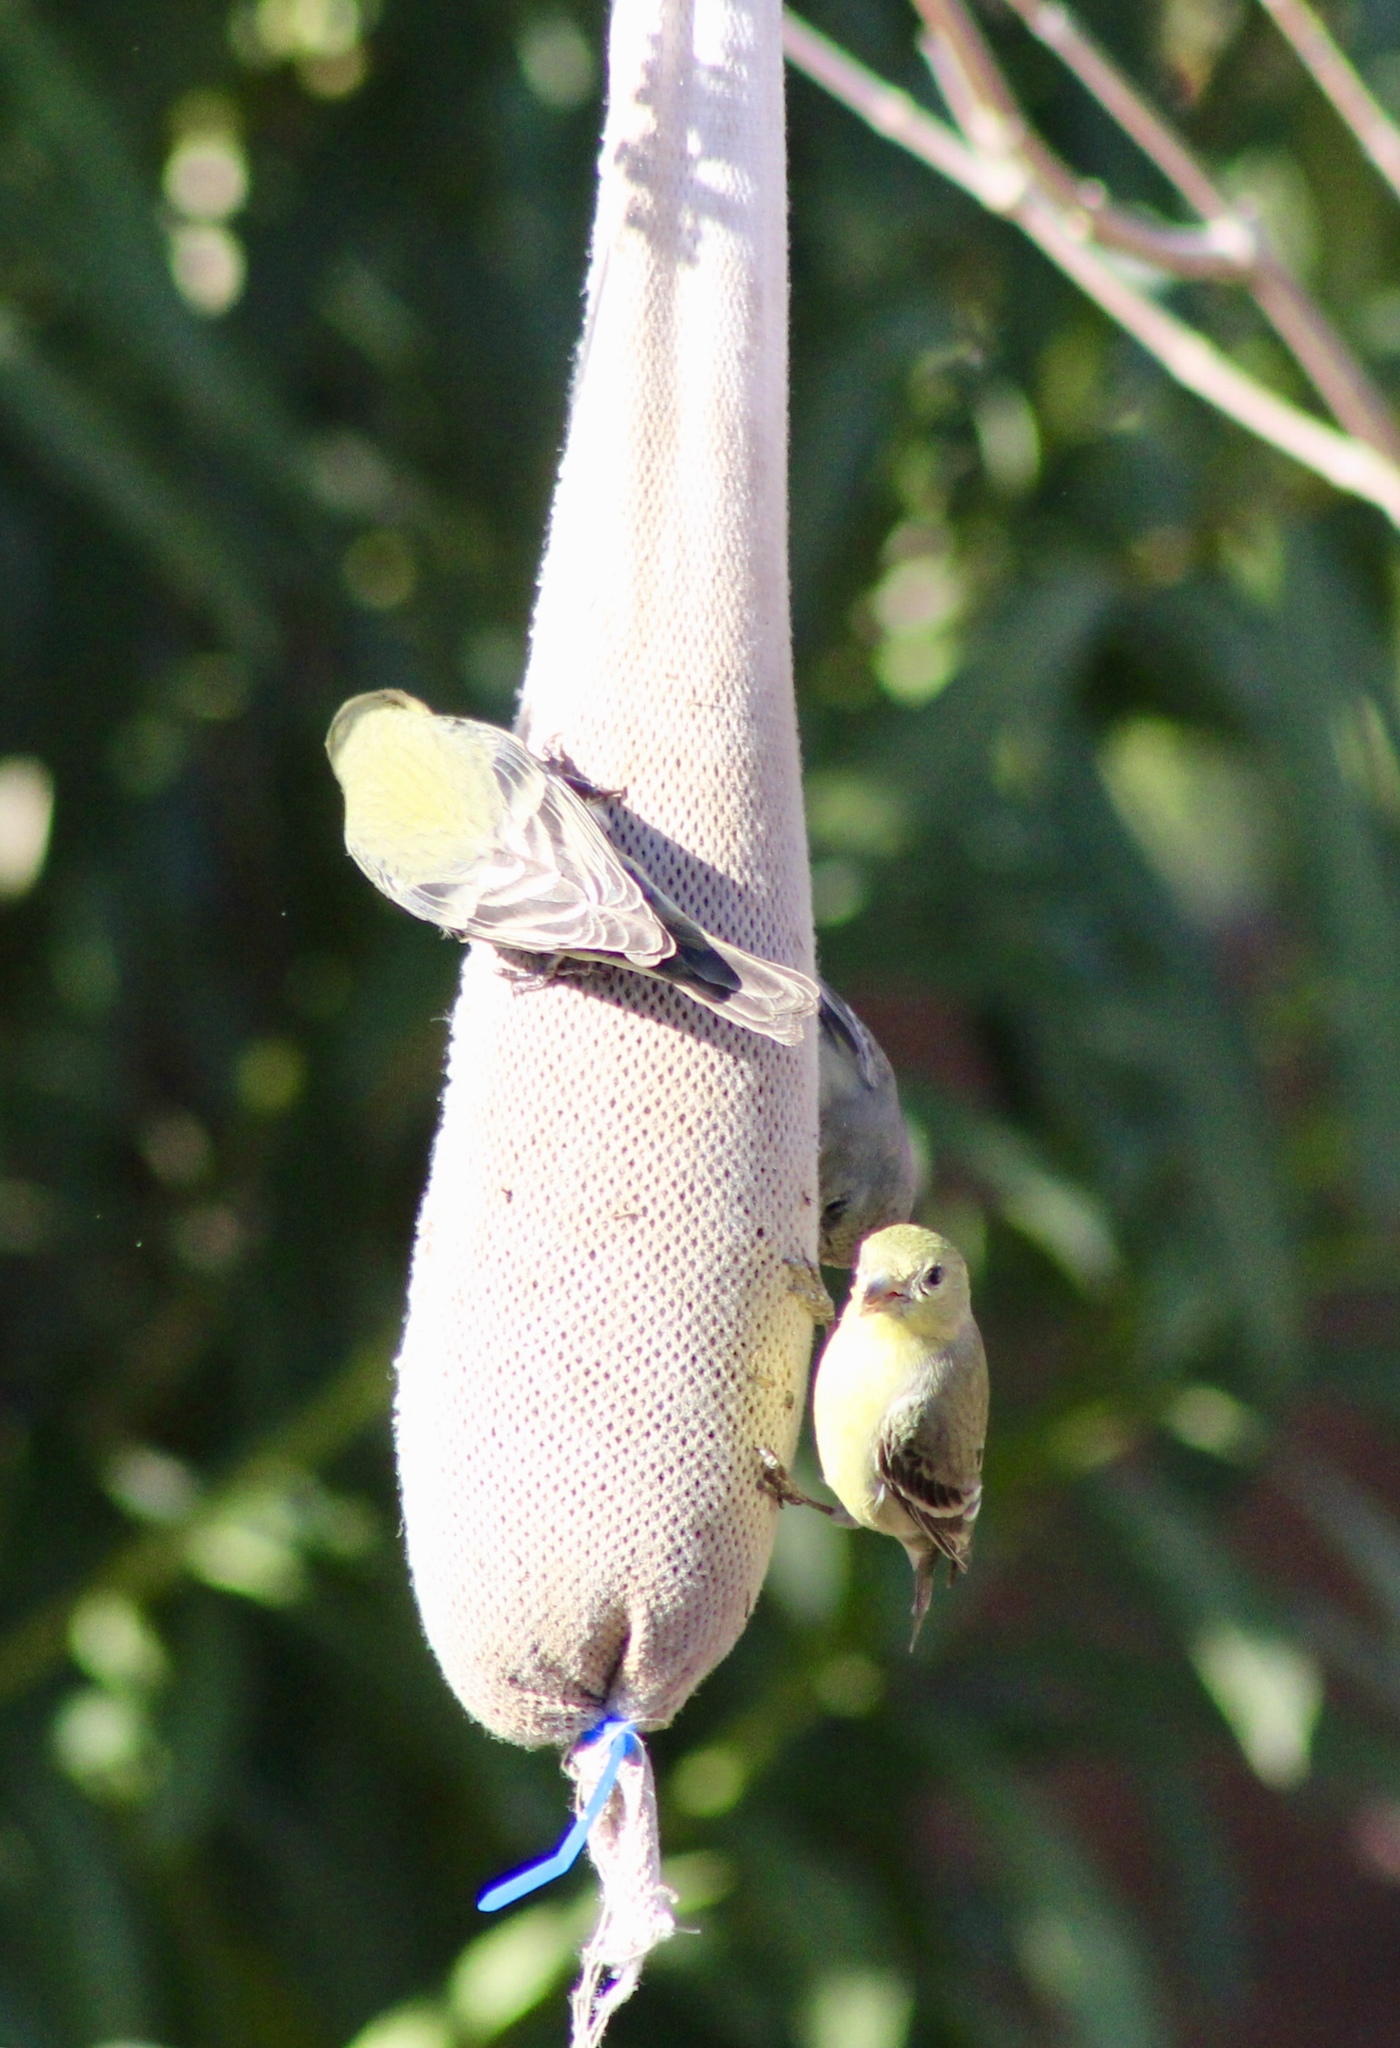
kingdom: Animalia
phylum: Chordata
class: Aves
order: Passeriformes
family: Fringillidae
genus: Spinus
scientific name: Spinus psaltria
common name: Lesser goldfinch
